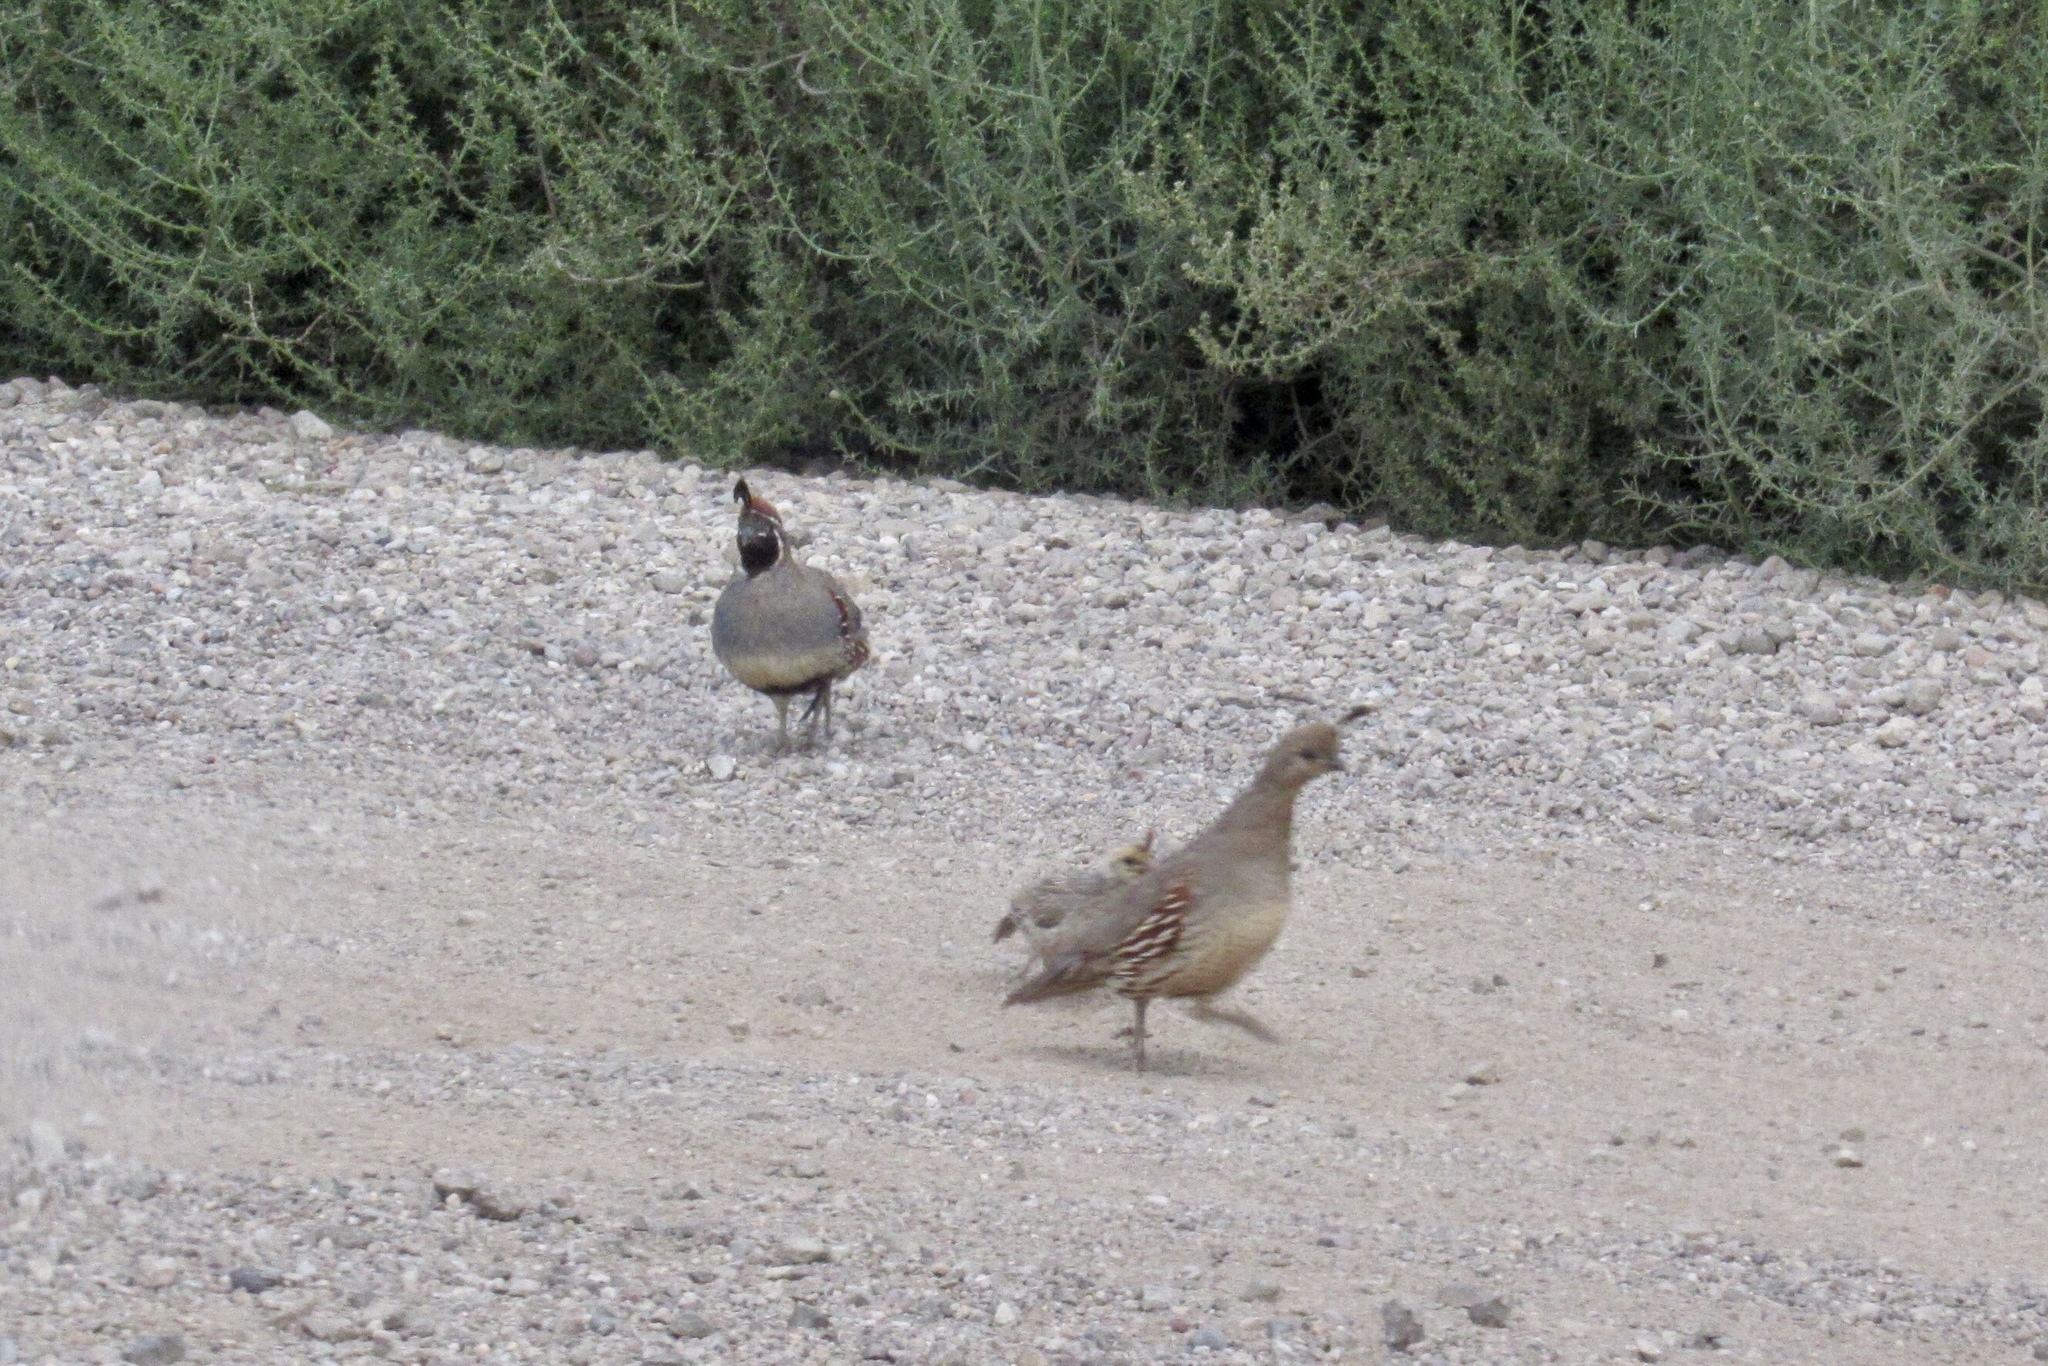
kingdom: Animalia
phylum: Chordata
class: Aves
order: Galliformes
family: Odontophoridae
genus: Callipepla
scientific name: Callipepla gambelii
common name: Gambel's quail
